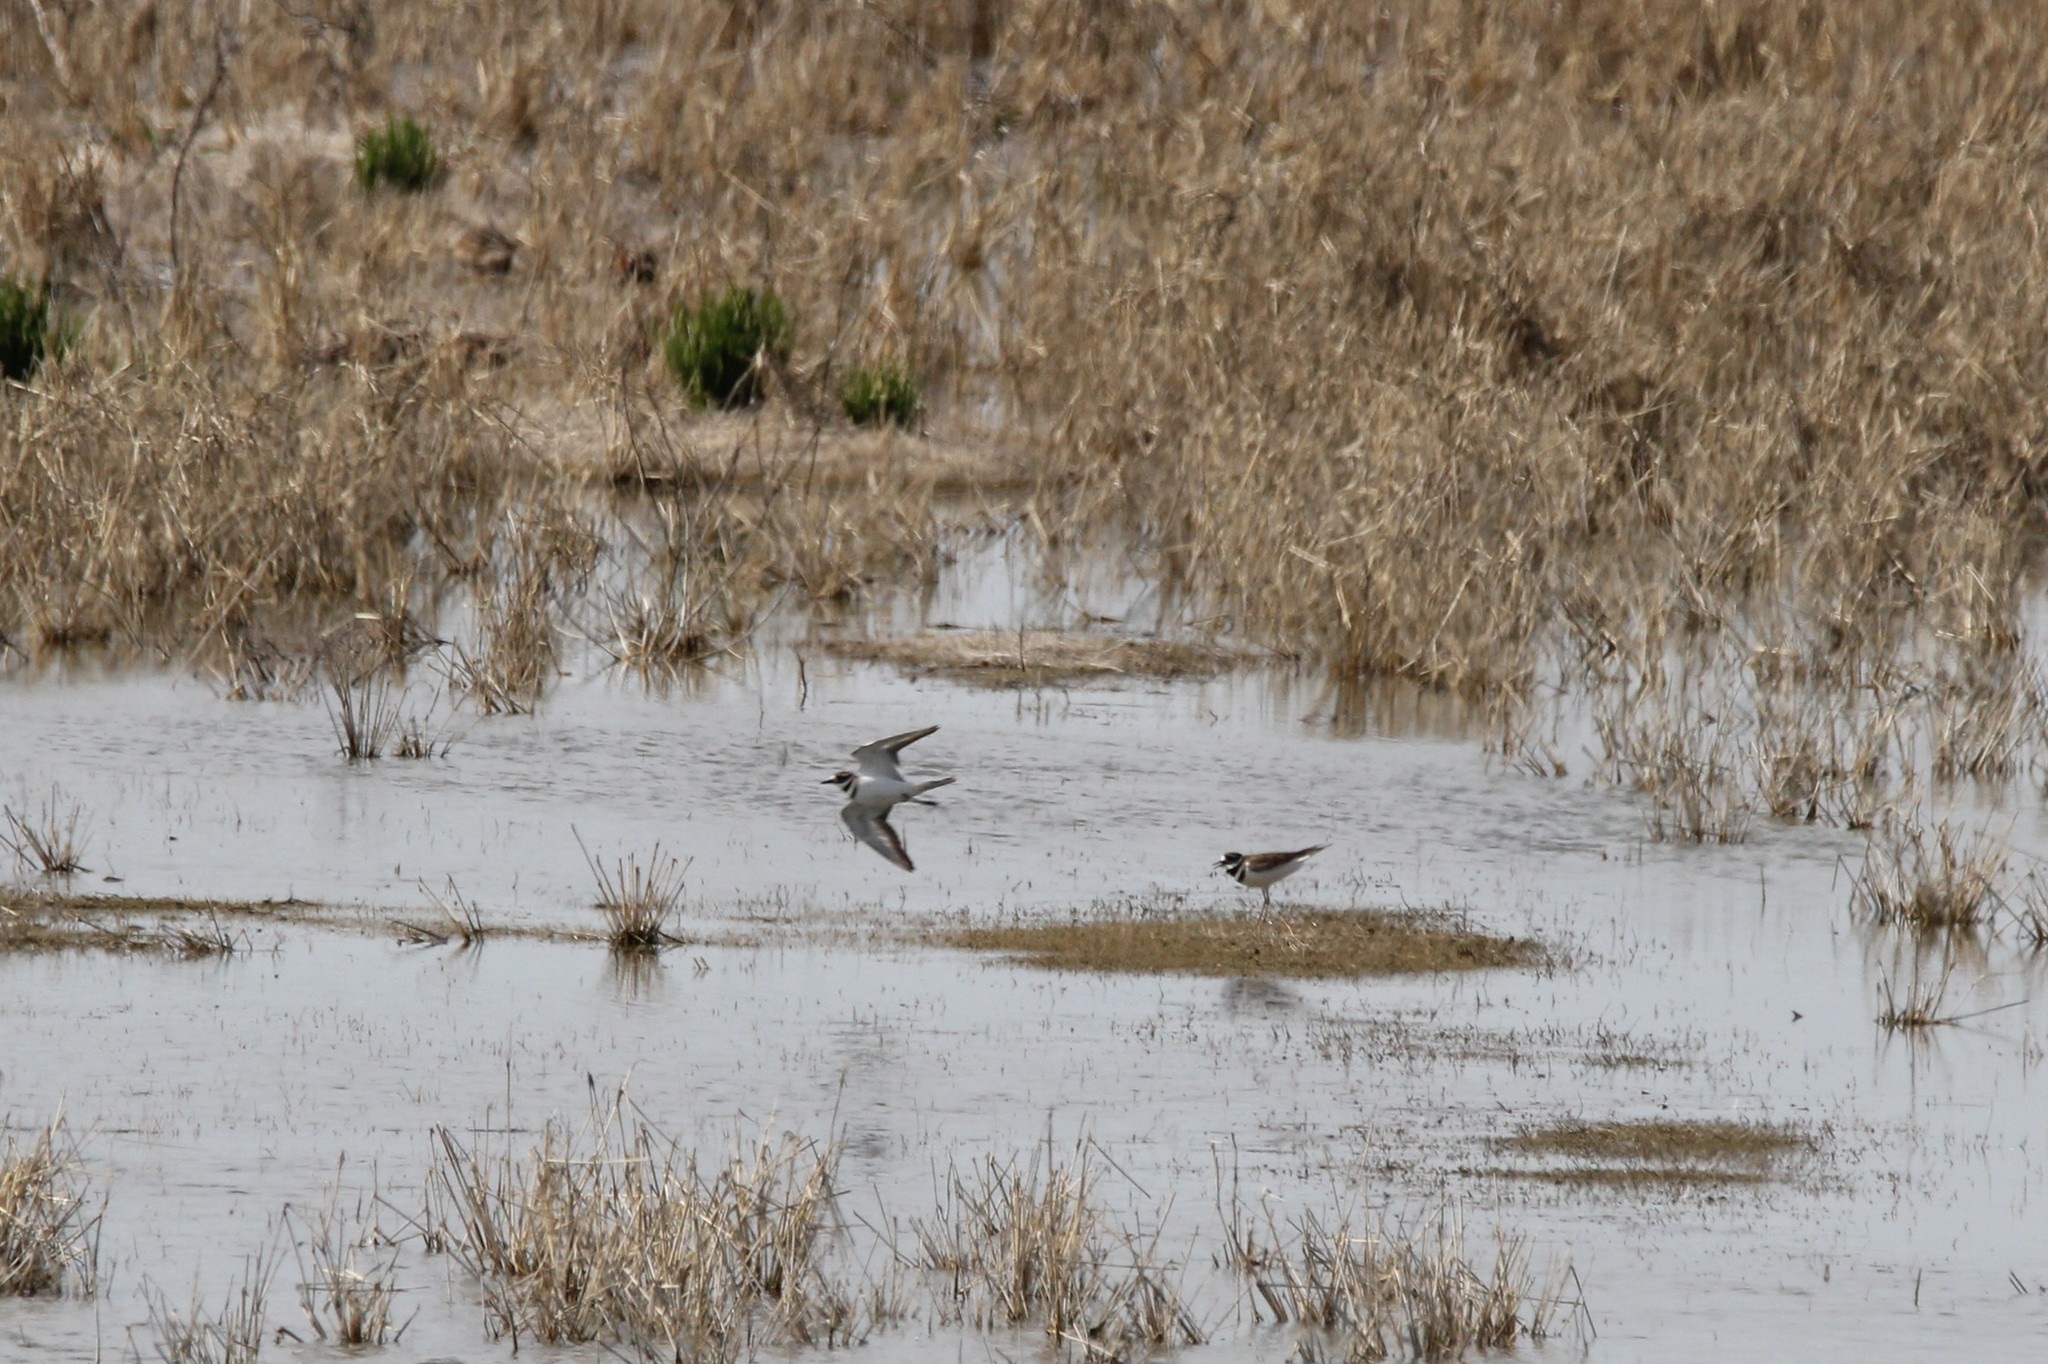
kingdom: Animalia
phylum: Chordata
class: Aves
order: Charadriiformes
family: Charadriidae
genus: Charadrius
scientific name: Charadrius vociferus
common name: Killdeer
